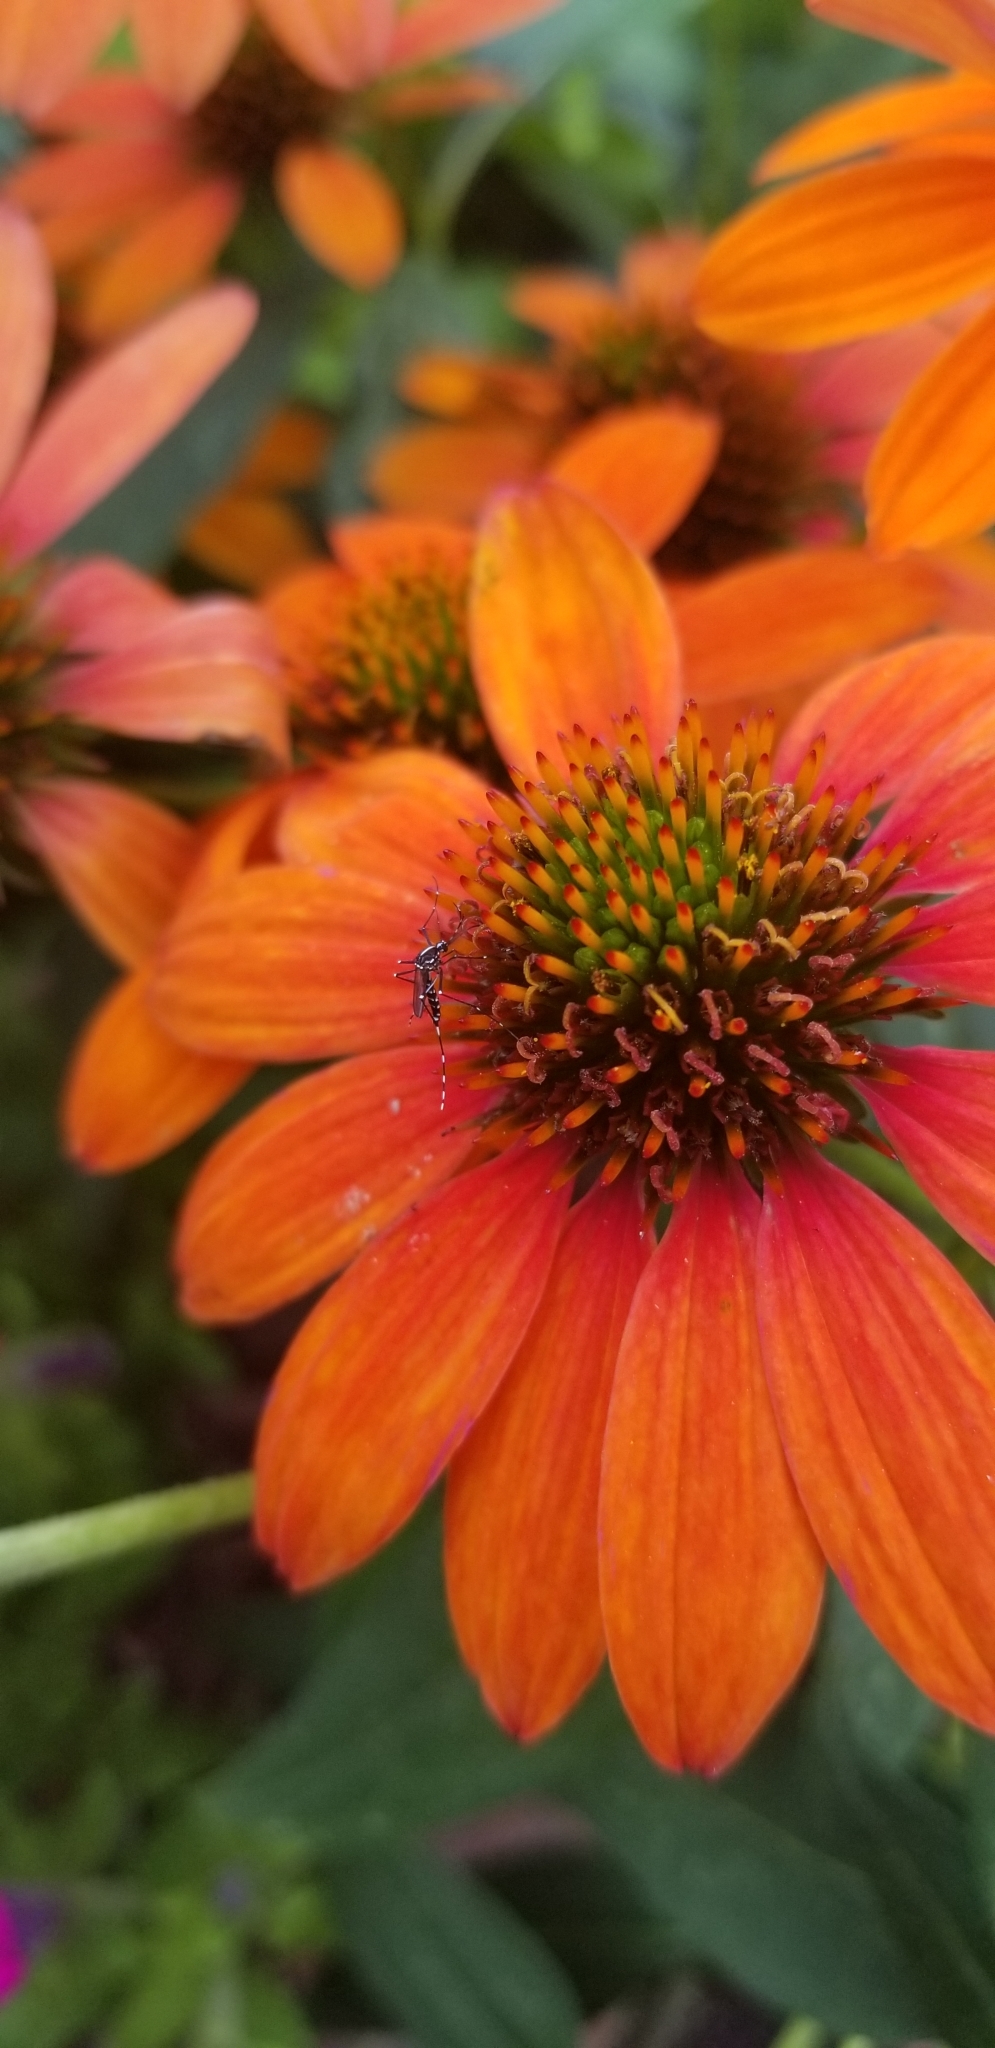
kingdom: Animalia
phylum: Arthropoda
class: Insecta
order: Diptera
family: Culicidae
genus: Aedes
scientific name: Aedes albopictus
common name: Tiger mosquito
